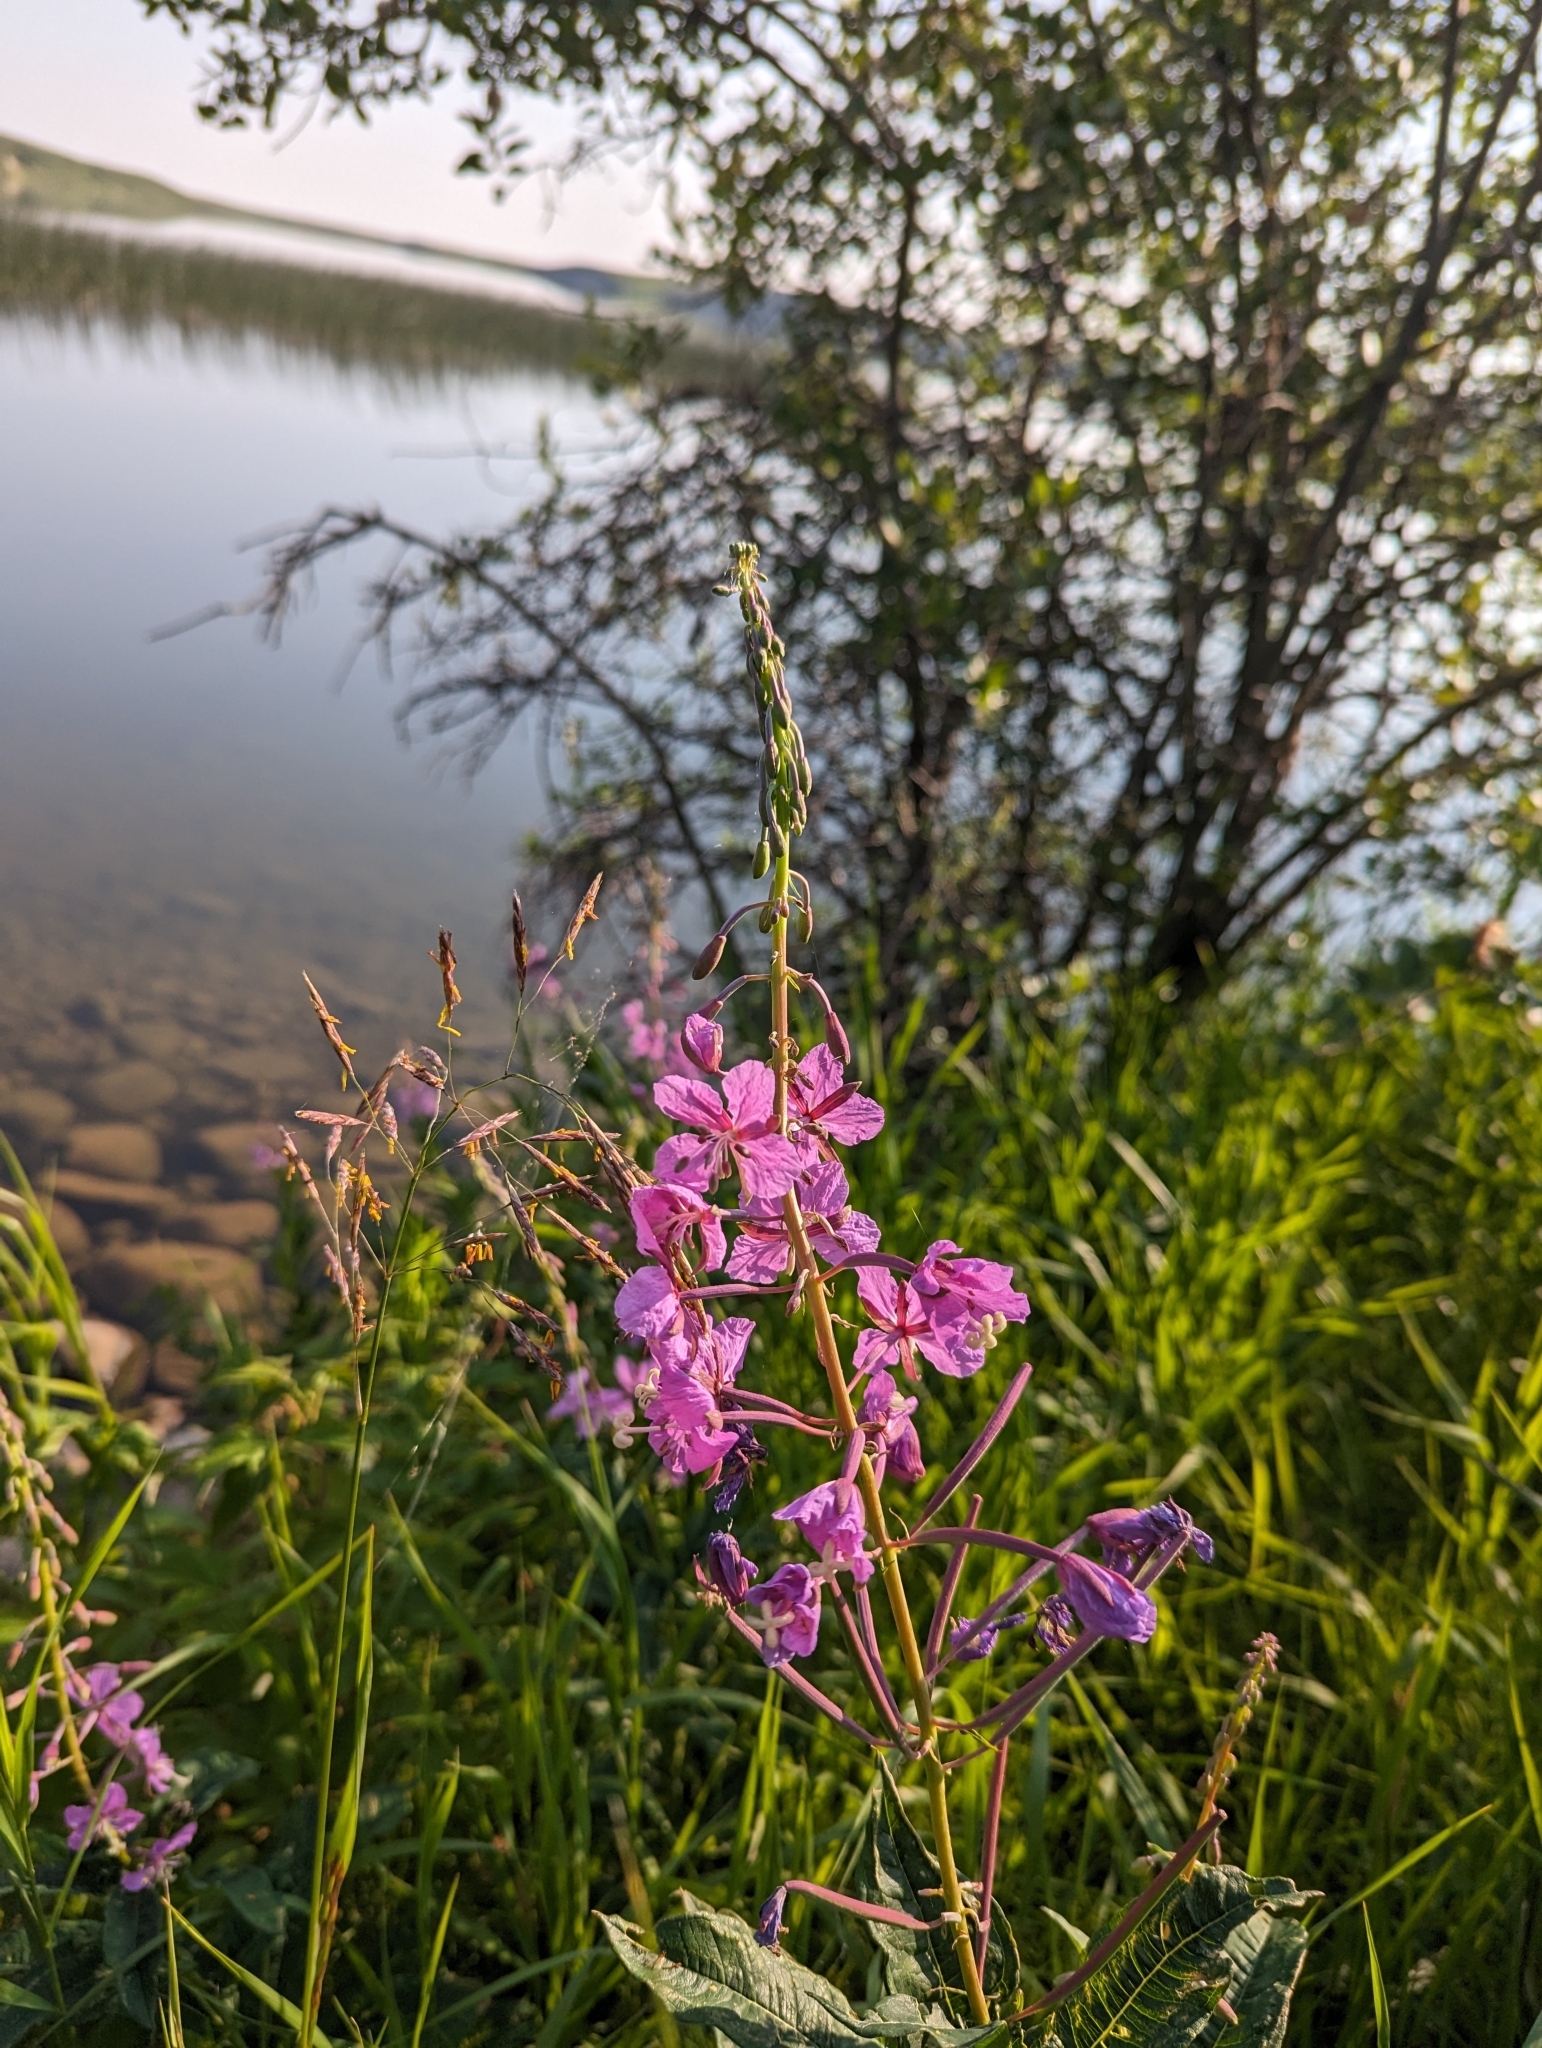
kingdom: Plantae
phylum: Tracheophyta
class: Magnoliopsida
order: Myrtales
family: Onagraceae
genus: Chamaenerion
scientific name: Chamaenerion angustifolium
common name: Fireweed
